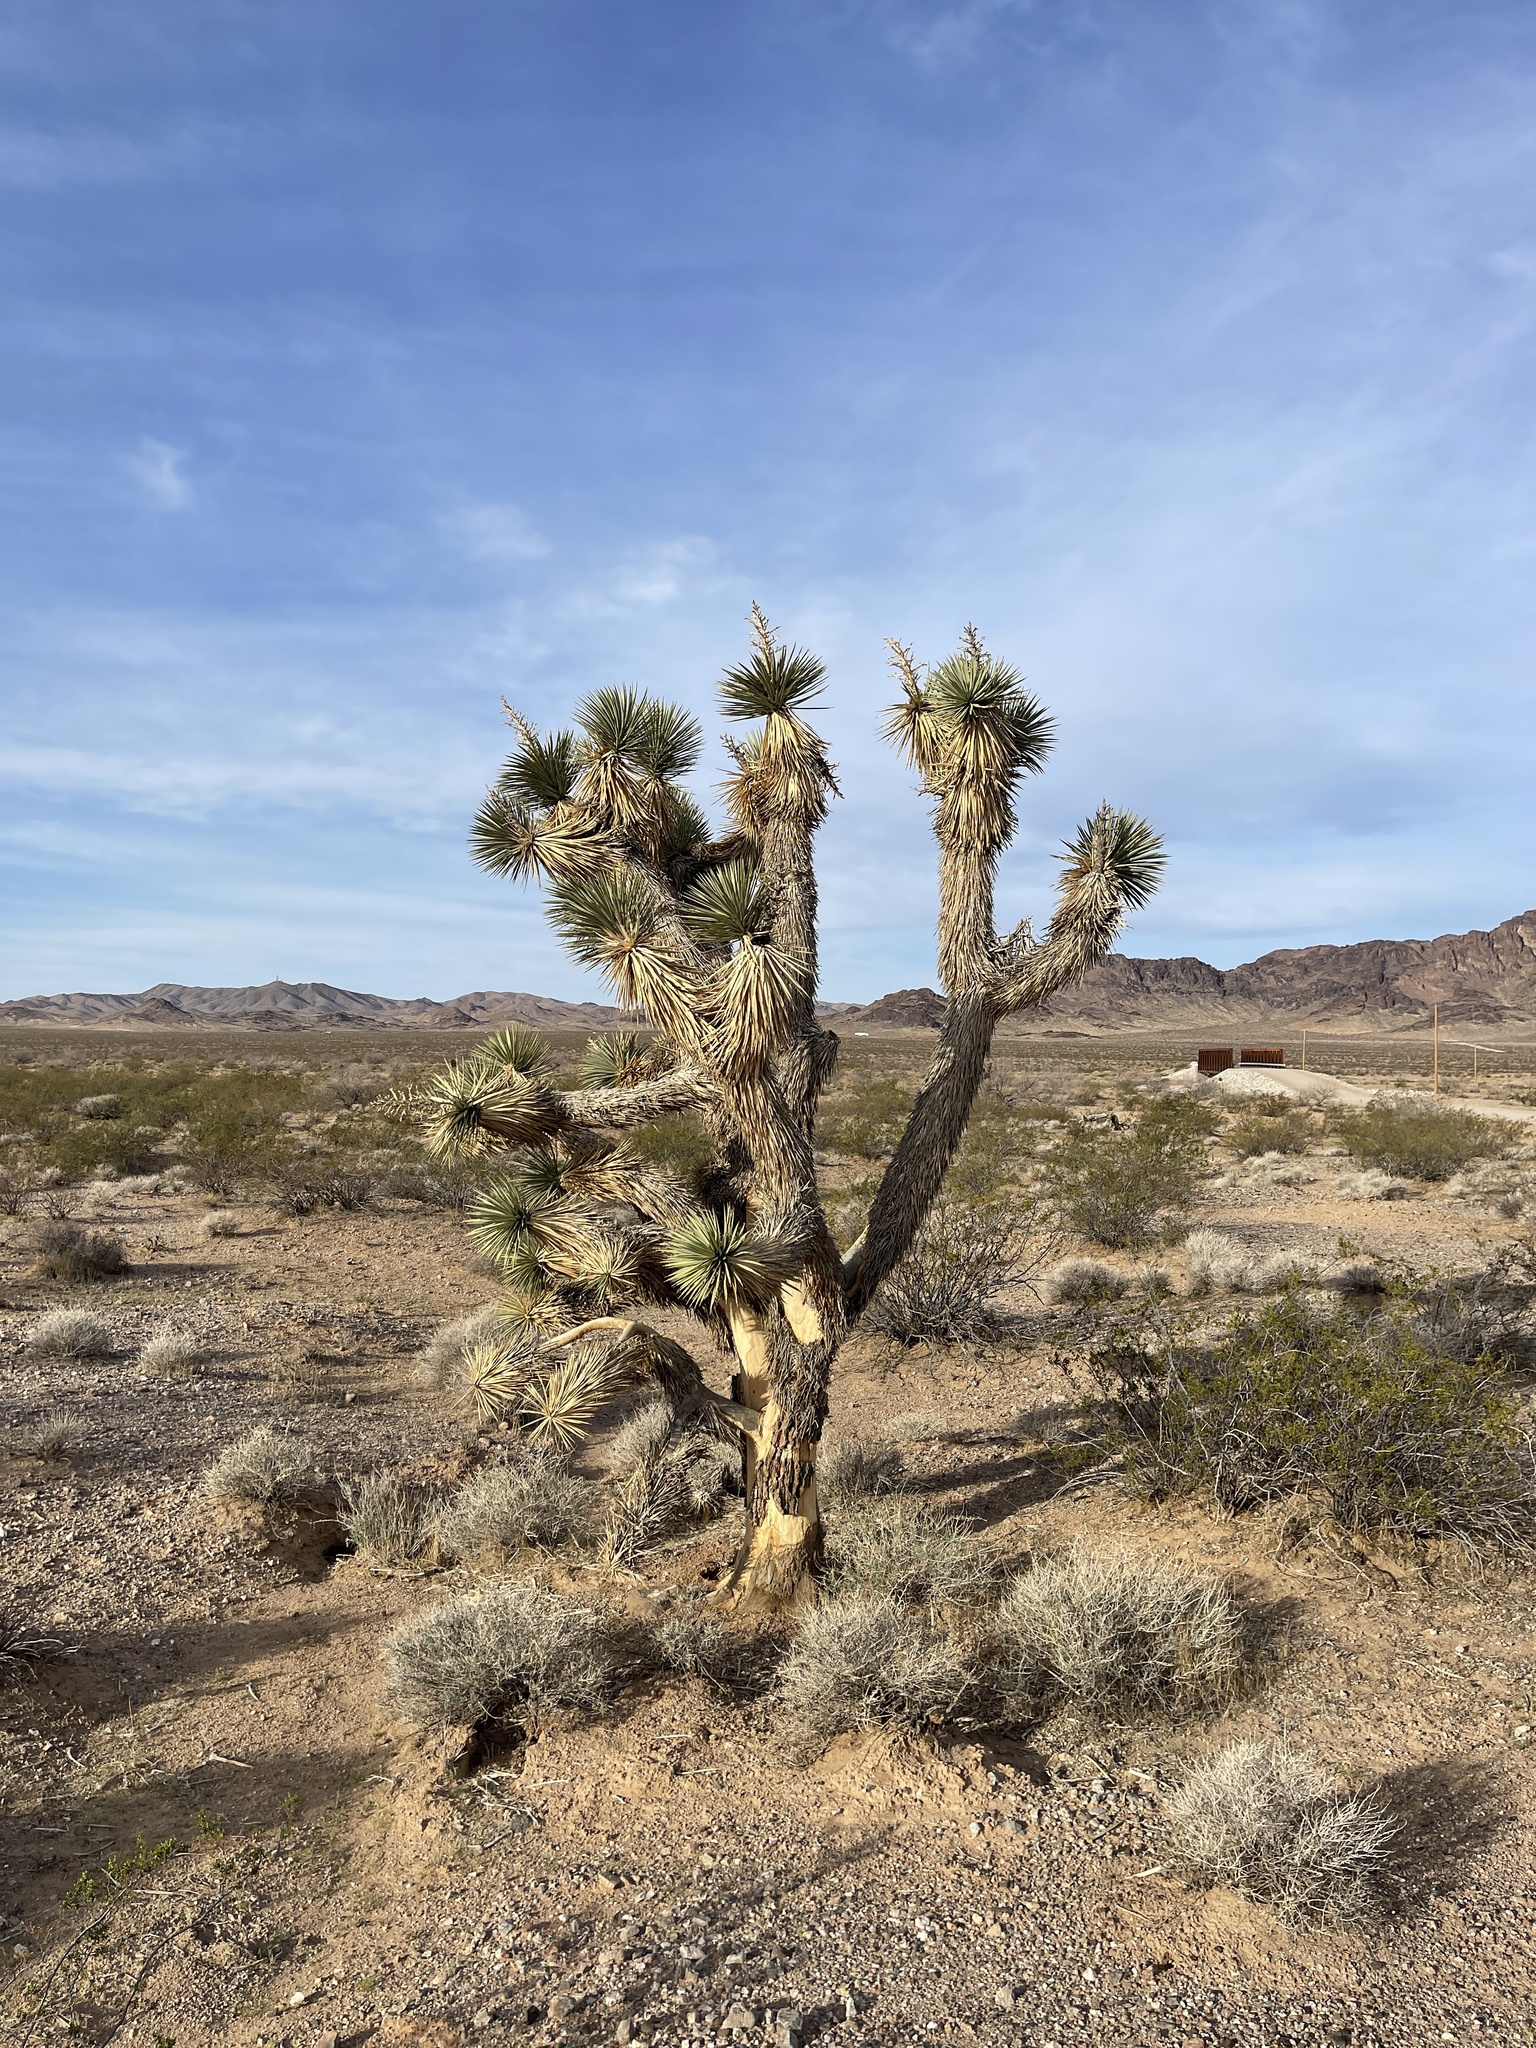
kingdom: Plantae
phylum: Tracheophyta
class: Liliopsida
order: Asparagales
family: Asparagaceae
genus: Yucca
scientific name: Yucca brevifolia
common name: Joshua tree
